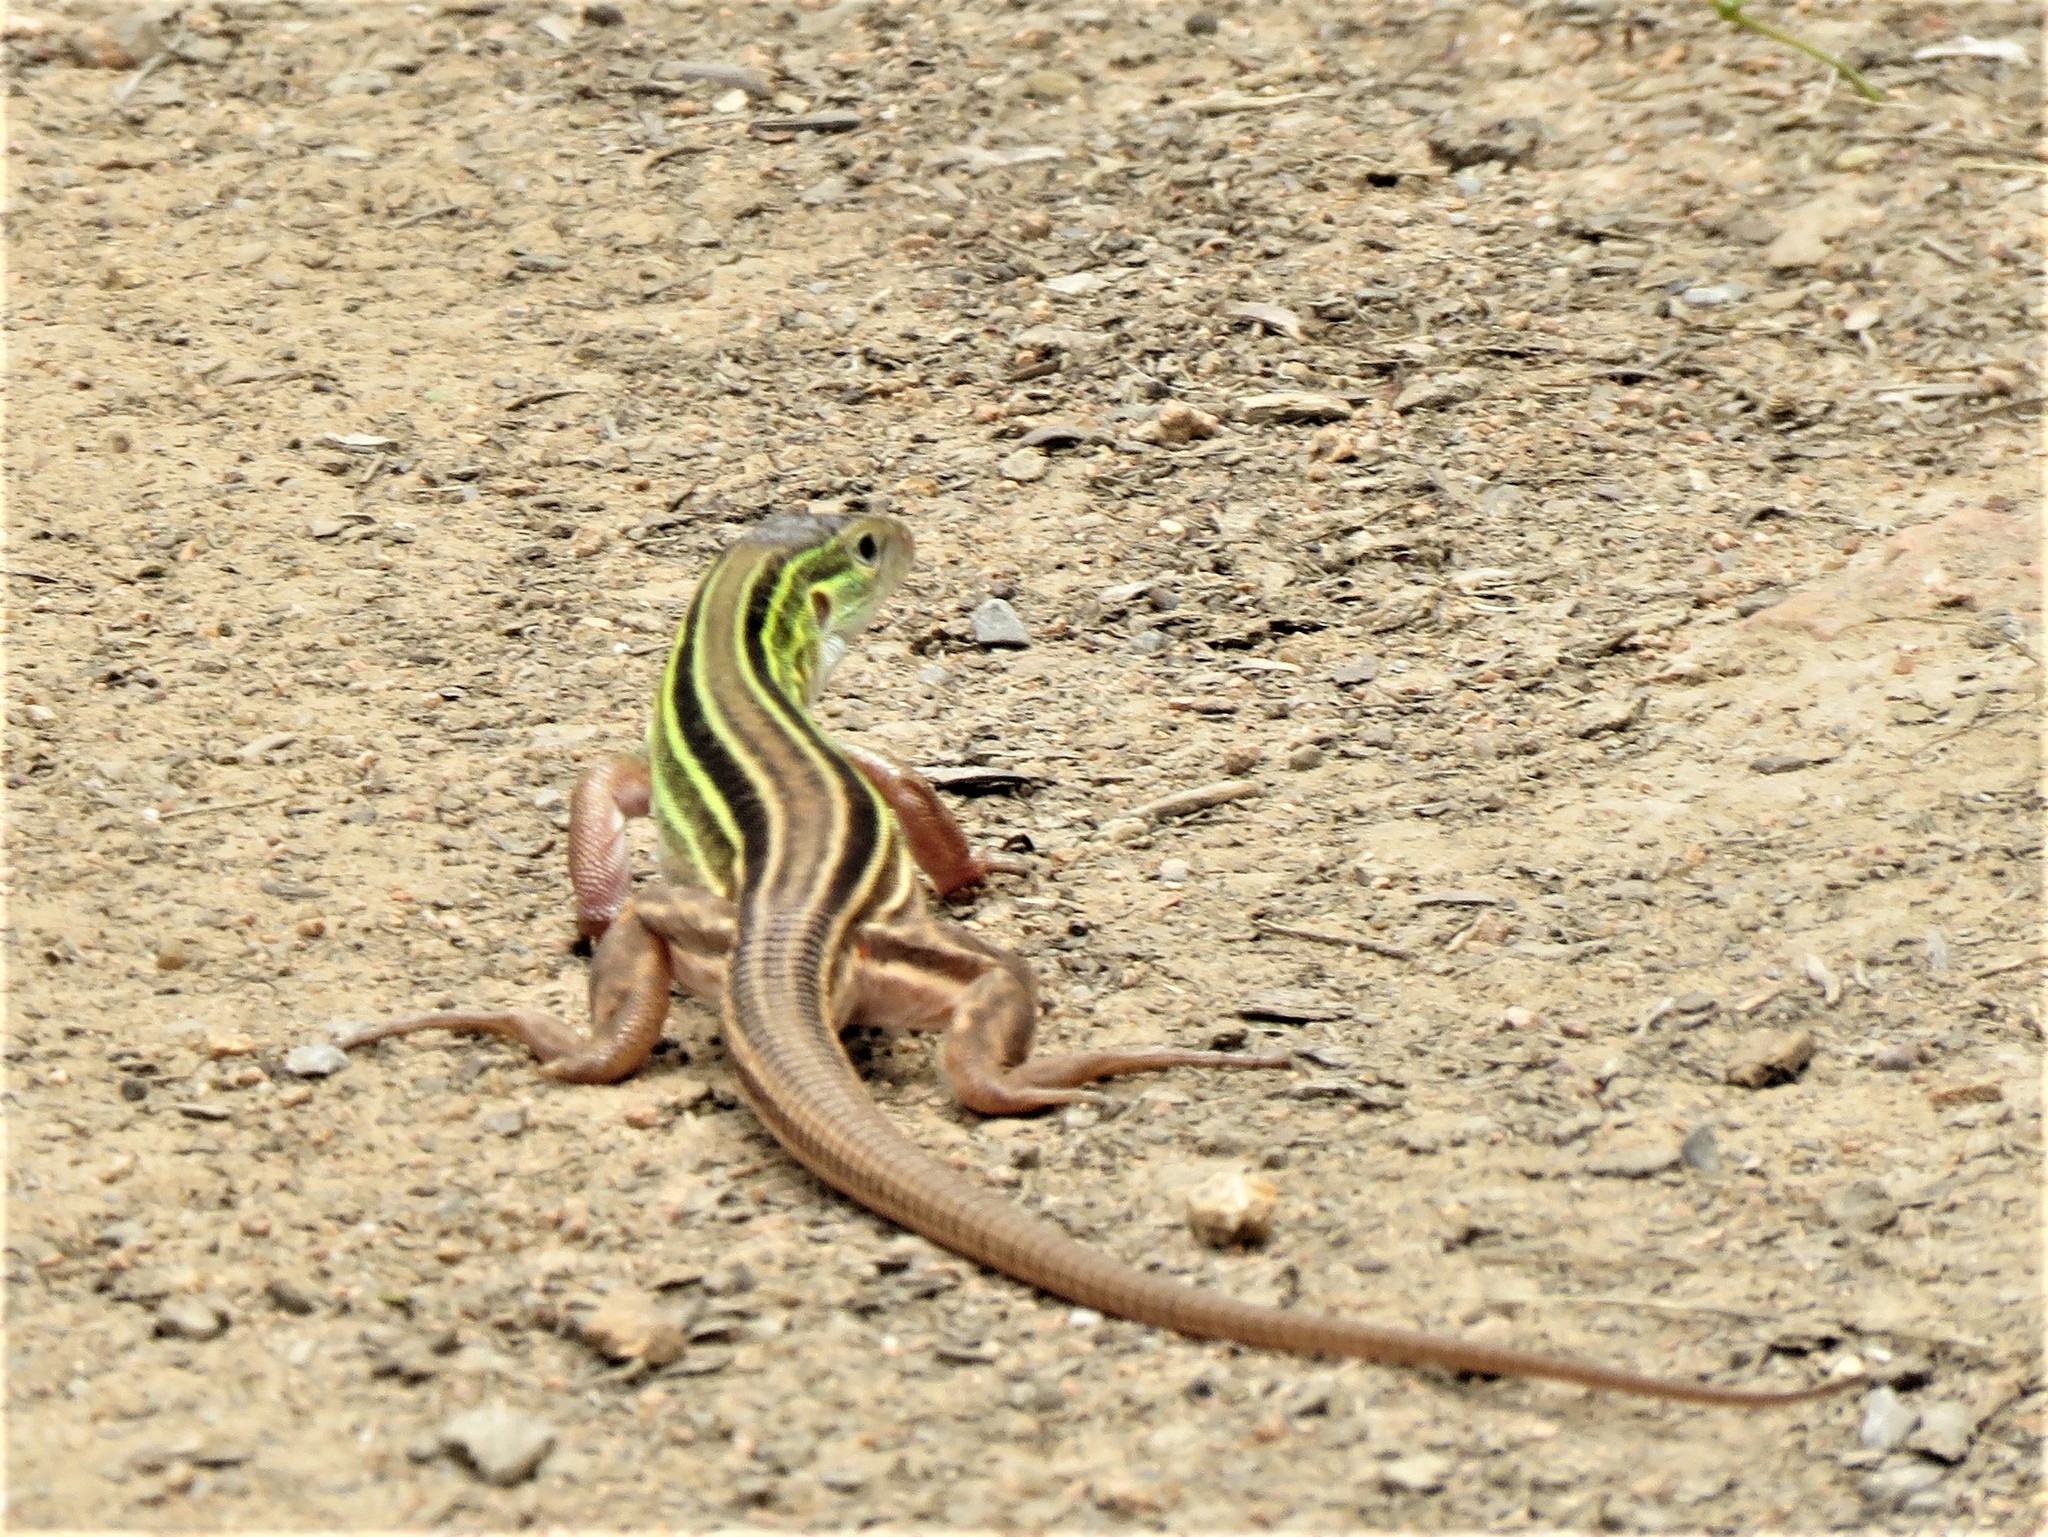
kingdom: Animalia
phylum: Chordata
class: Squamata
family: Teiidae
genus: Aspidoscelis
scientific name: Aspidoscelis sexlineatus
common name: Six-lined racerunner
